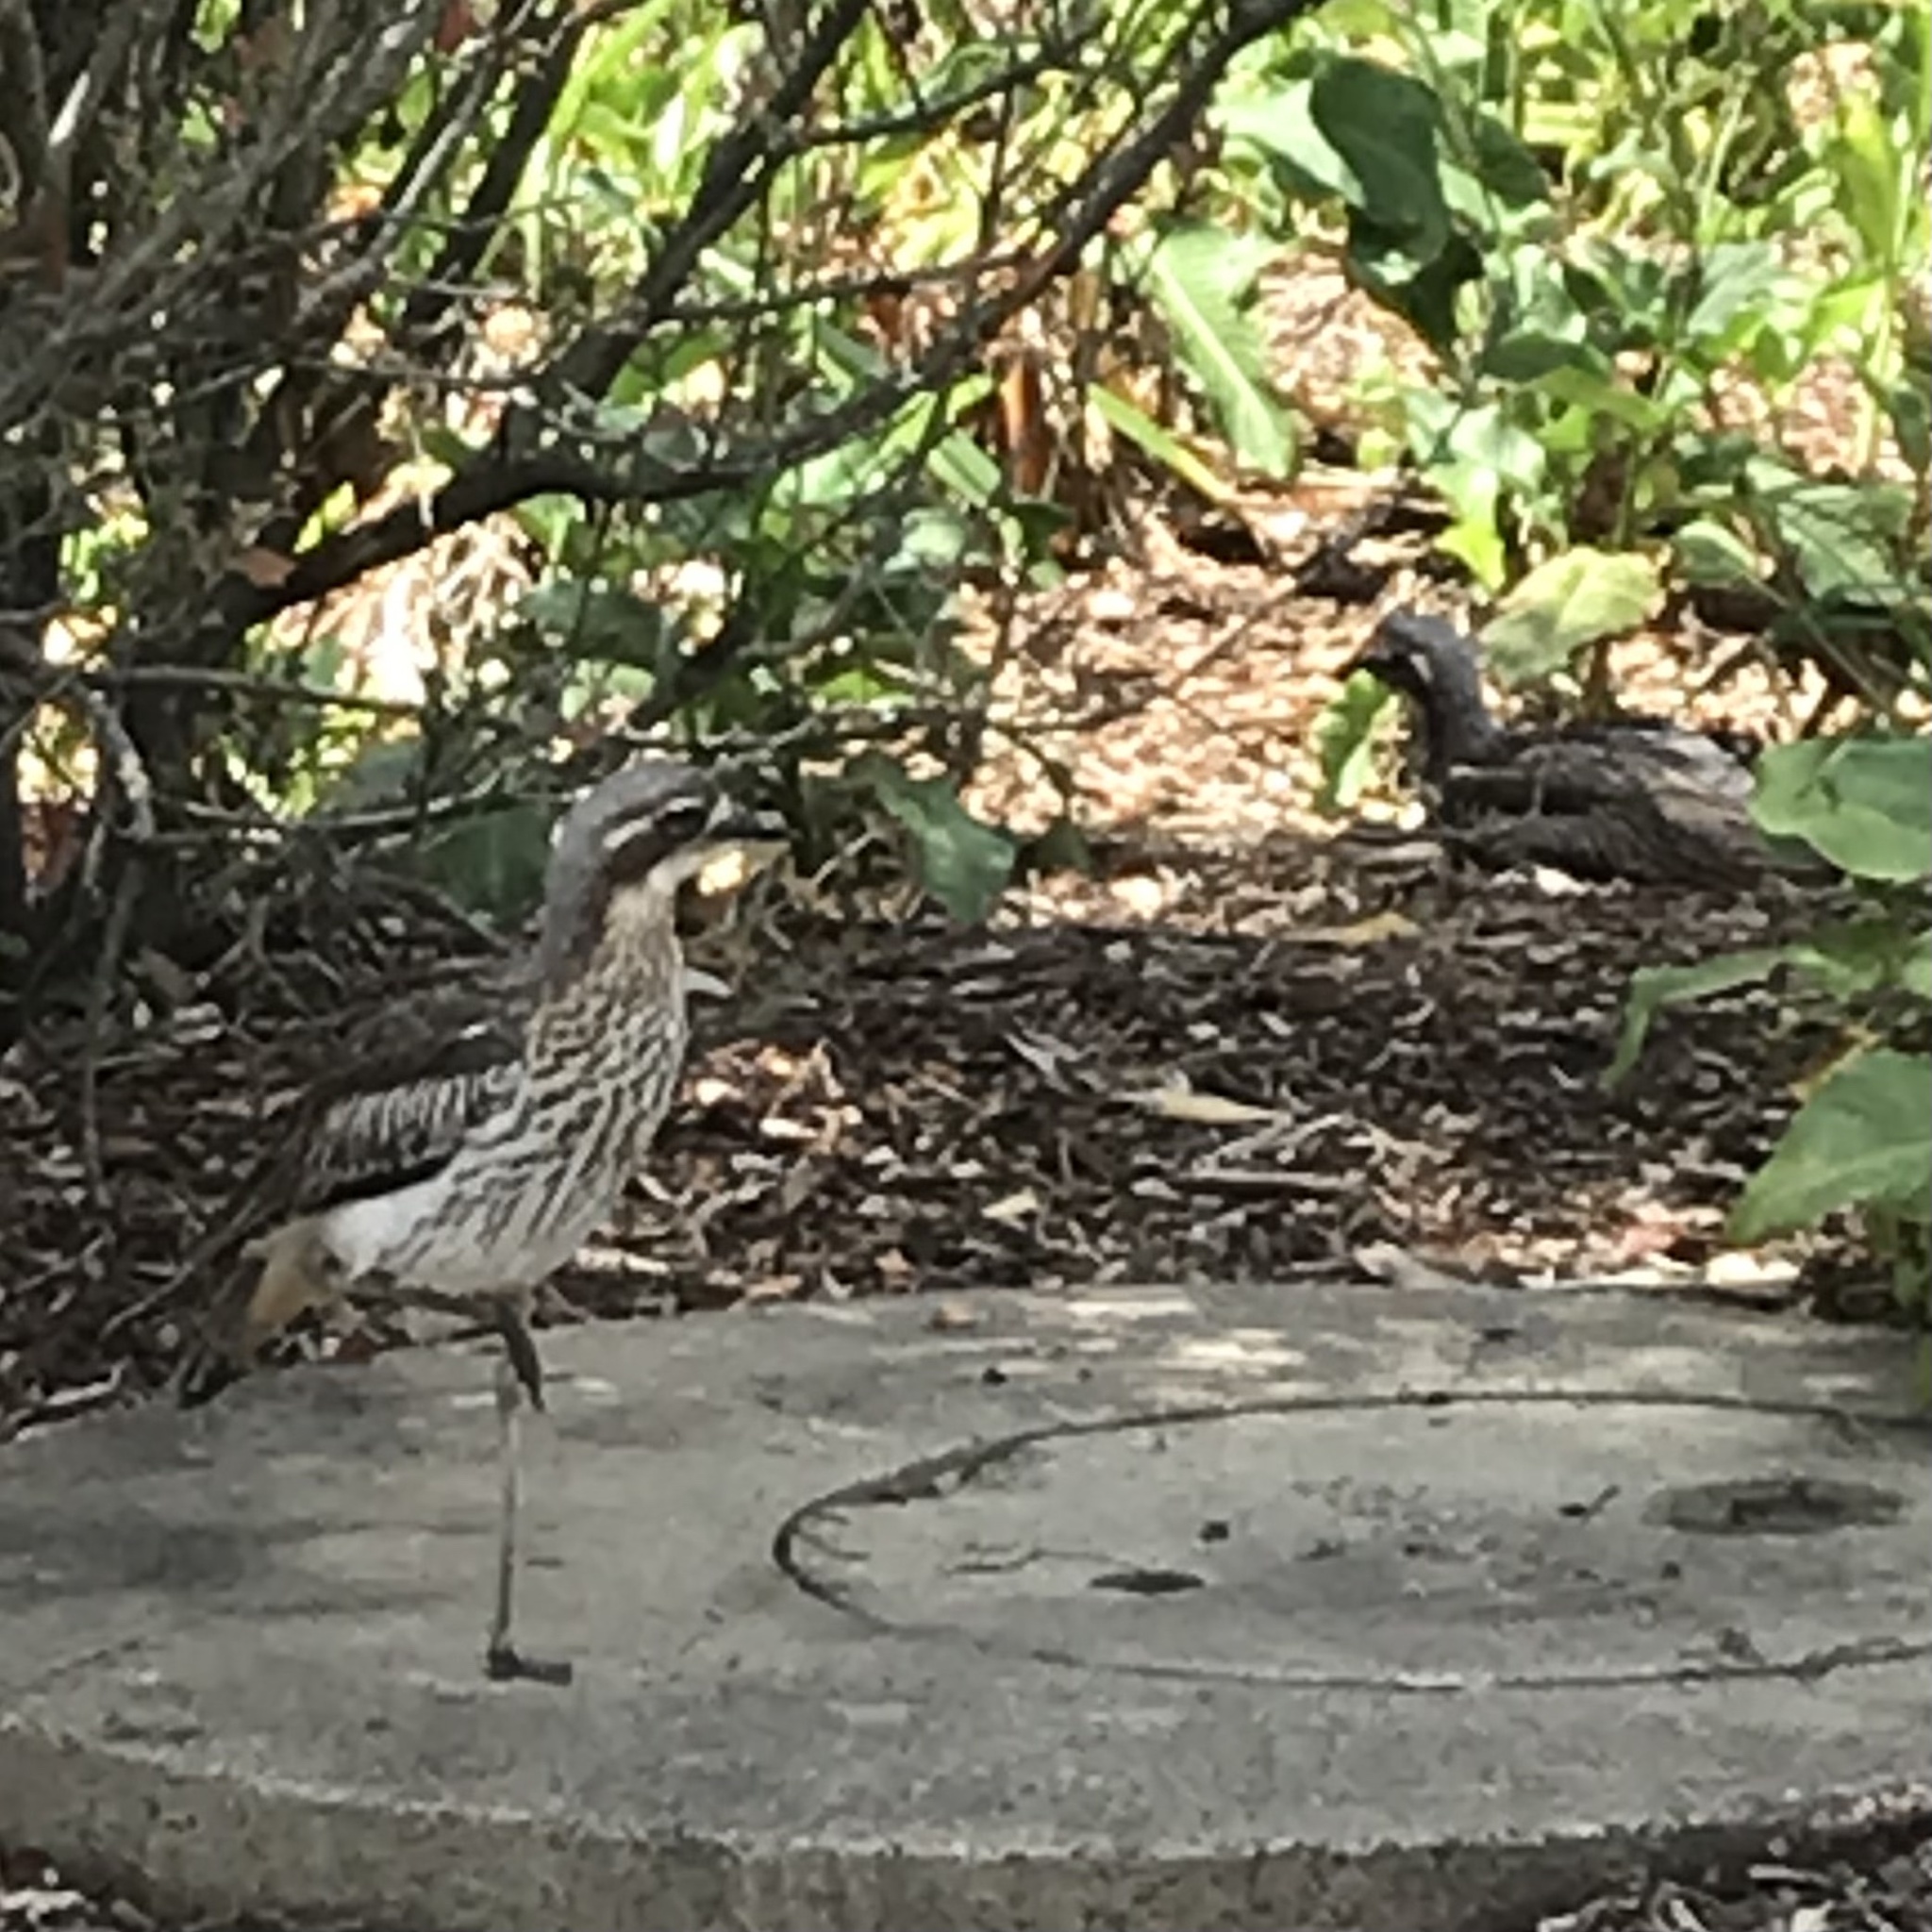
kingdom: Animalia
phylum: Chordata
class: Aves
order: Charadriiformes
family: Burhinidae
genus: Burhinus
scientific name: Burhinus grallarius
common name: Bush stone-curlew
